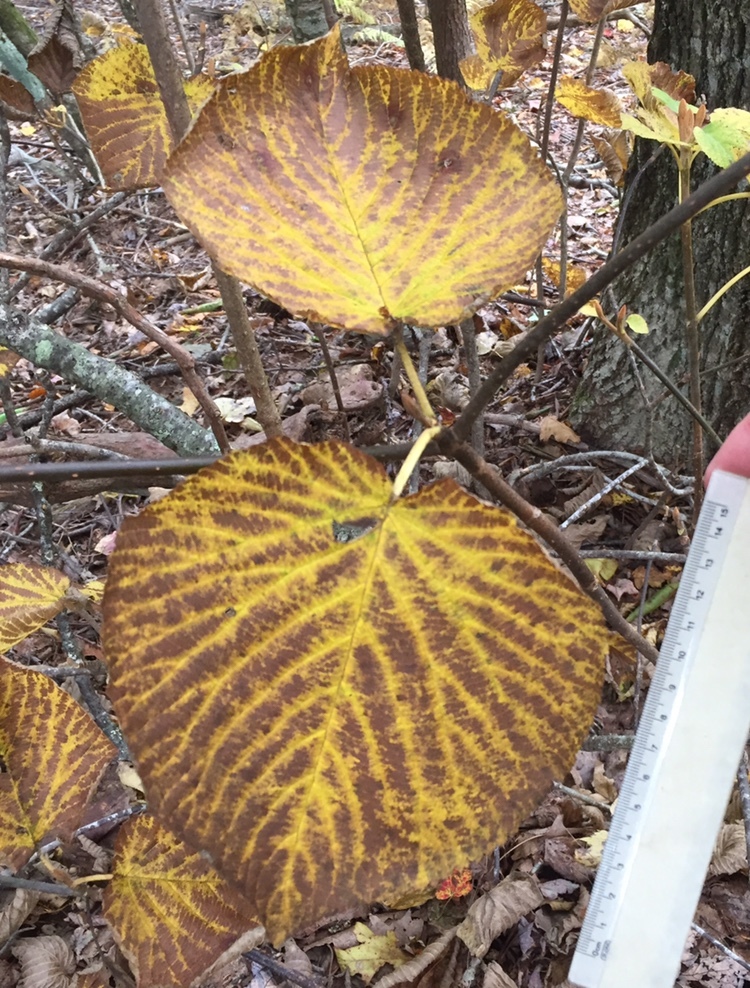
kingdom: Plantae
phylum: Tracheophyta
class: Magnoliopsida
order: Dipsacales
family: Viburnaceae
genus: Viburnum
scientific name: Viburnum lantanoides
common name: Hobblebush
